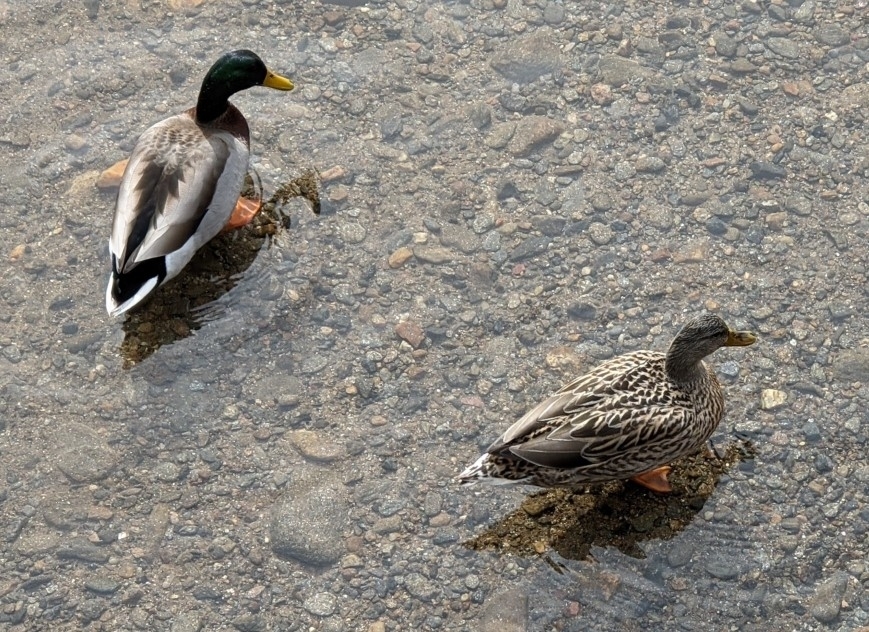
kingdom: Animalia
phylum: Chordata
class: Aves
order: Anseriformes
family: Anatidae
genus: Anas
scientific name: Anas platyrhynchos
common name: Mallard
